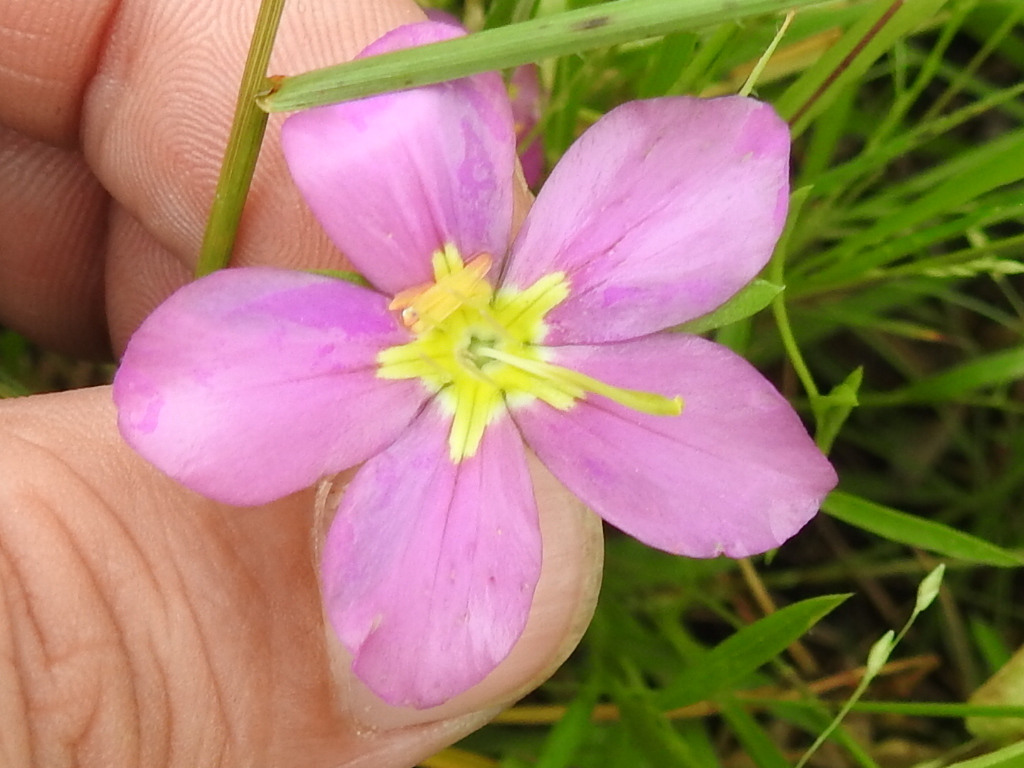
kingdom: Plantae
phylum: Tracheophyta
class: Magnoliopsida
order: Gentianales
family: Gentianaceae
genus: Sabatia
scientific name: Sabatia campestris
